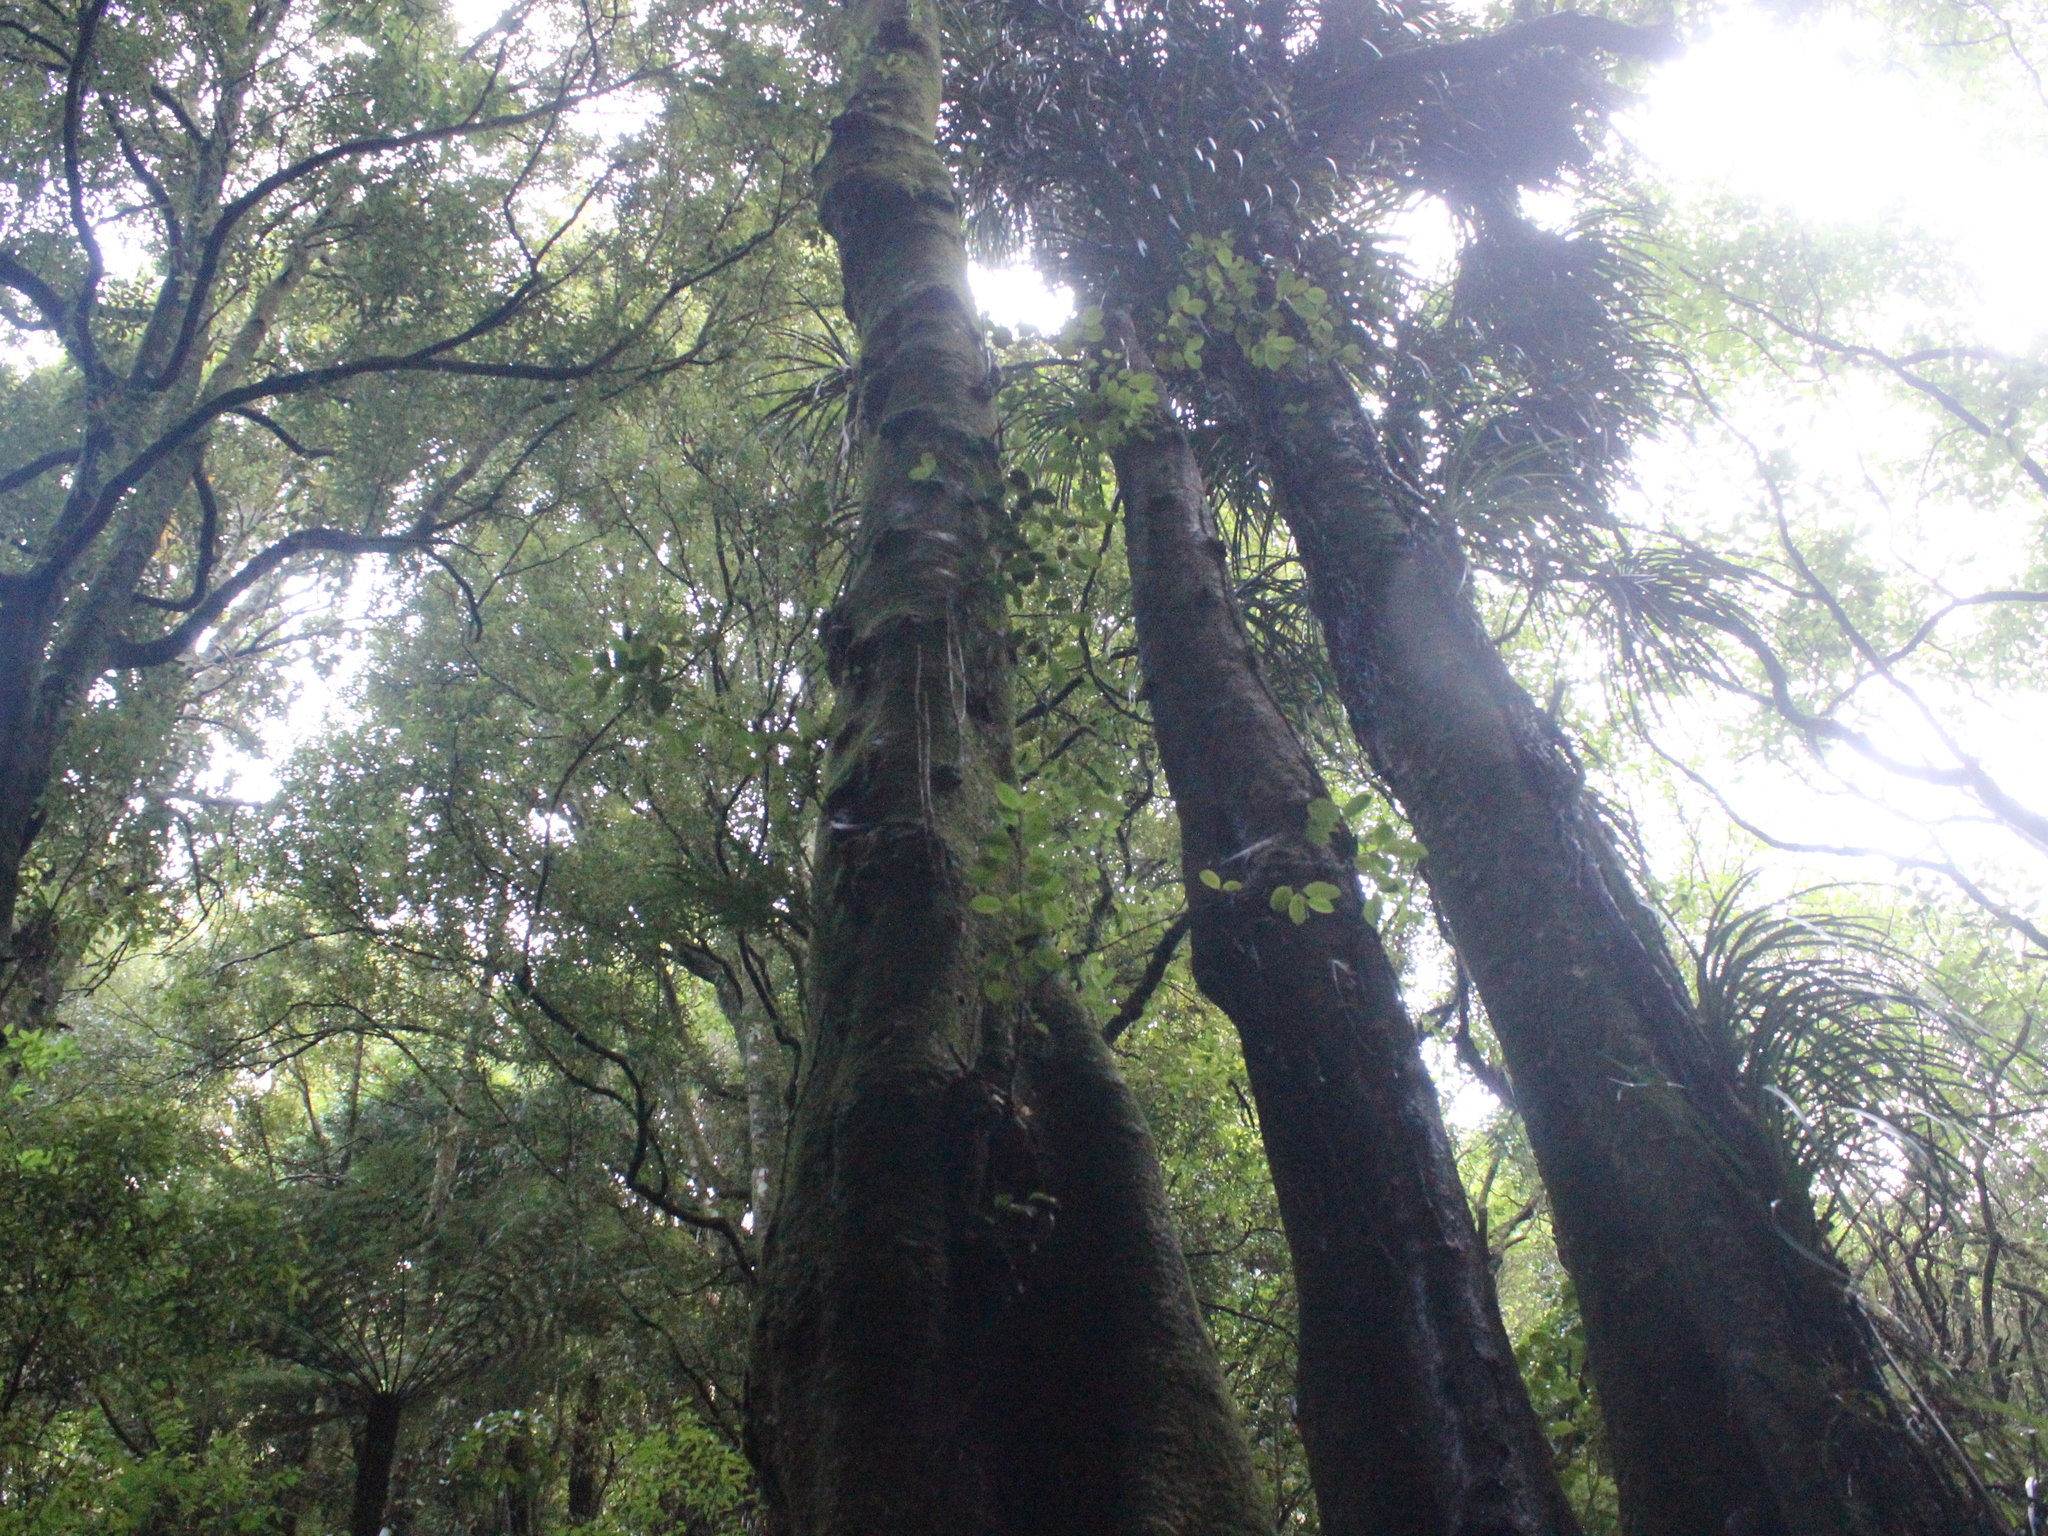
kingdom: Plantae
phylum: Tracheophyta
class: Magnoliopsida
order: Laurales
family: Atherospermataceae
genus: Laurelia
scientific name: Laurelia novae-zelandiae
